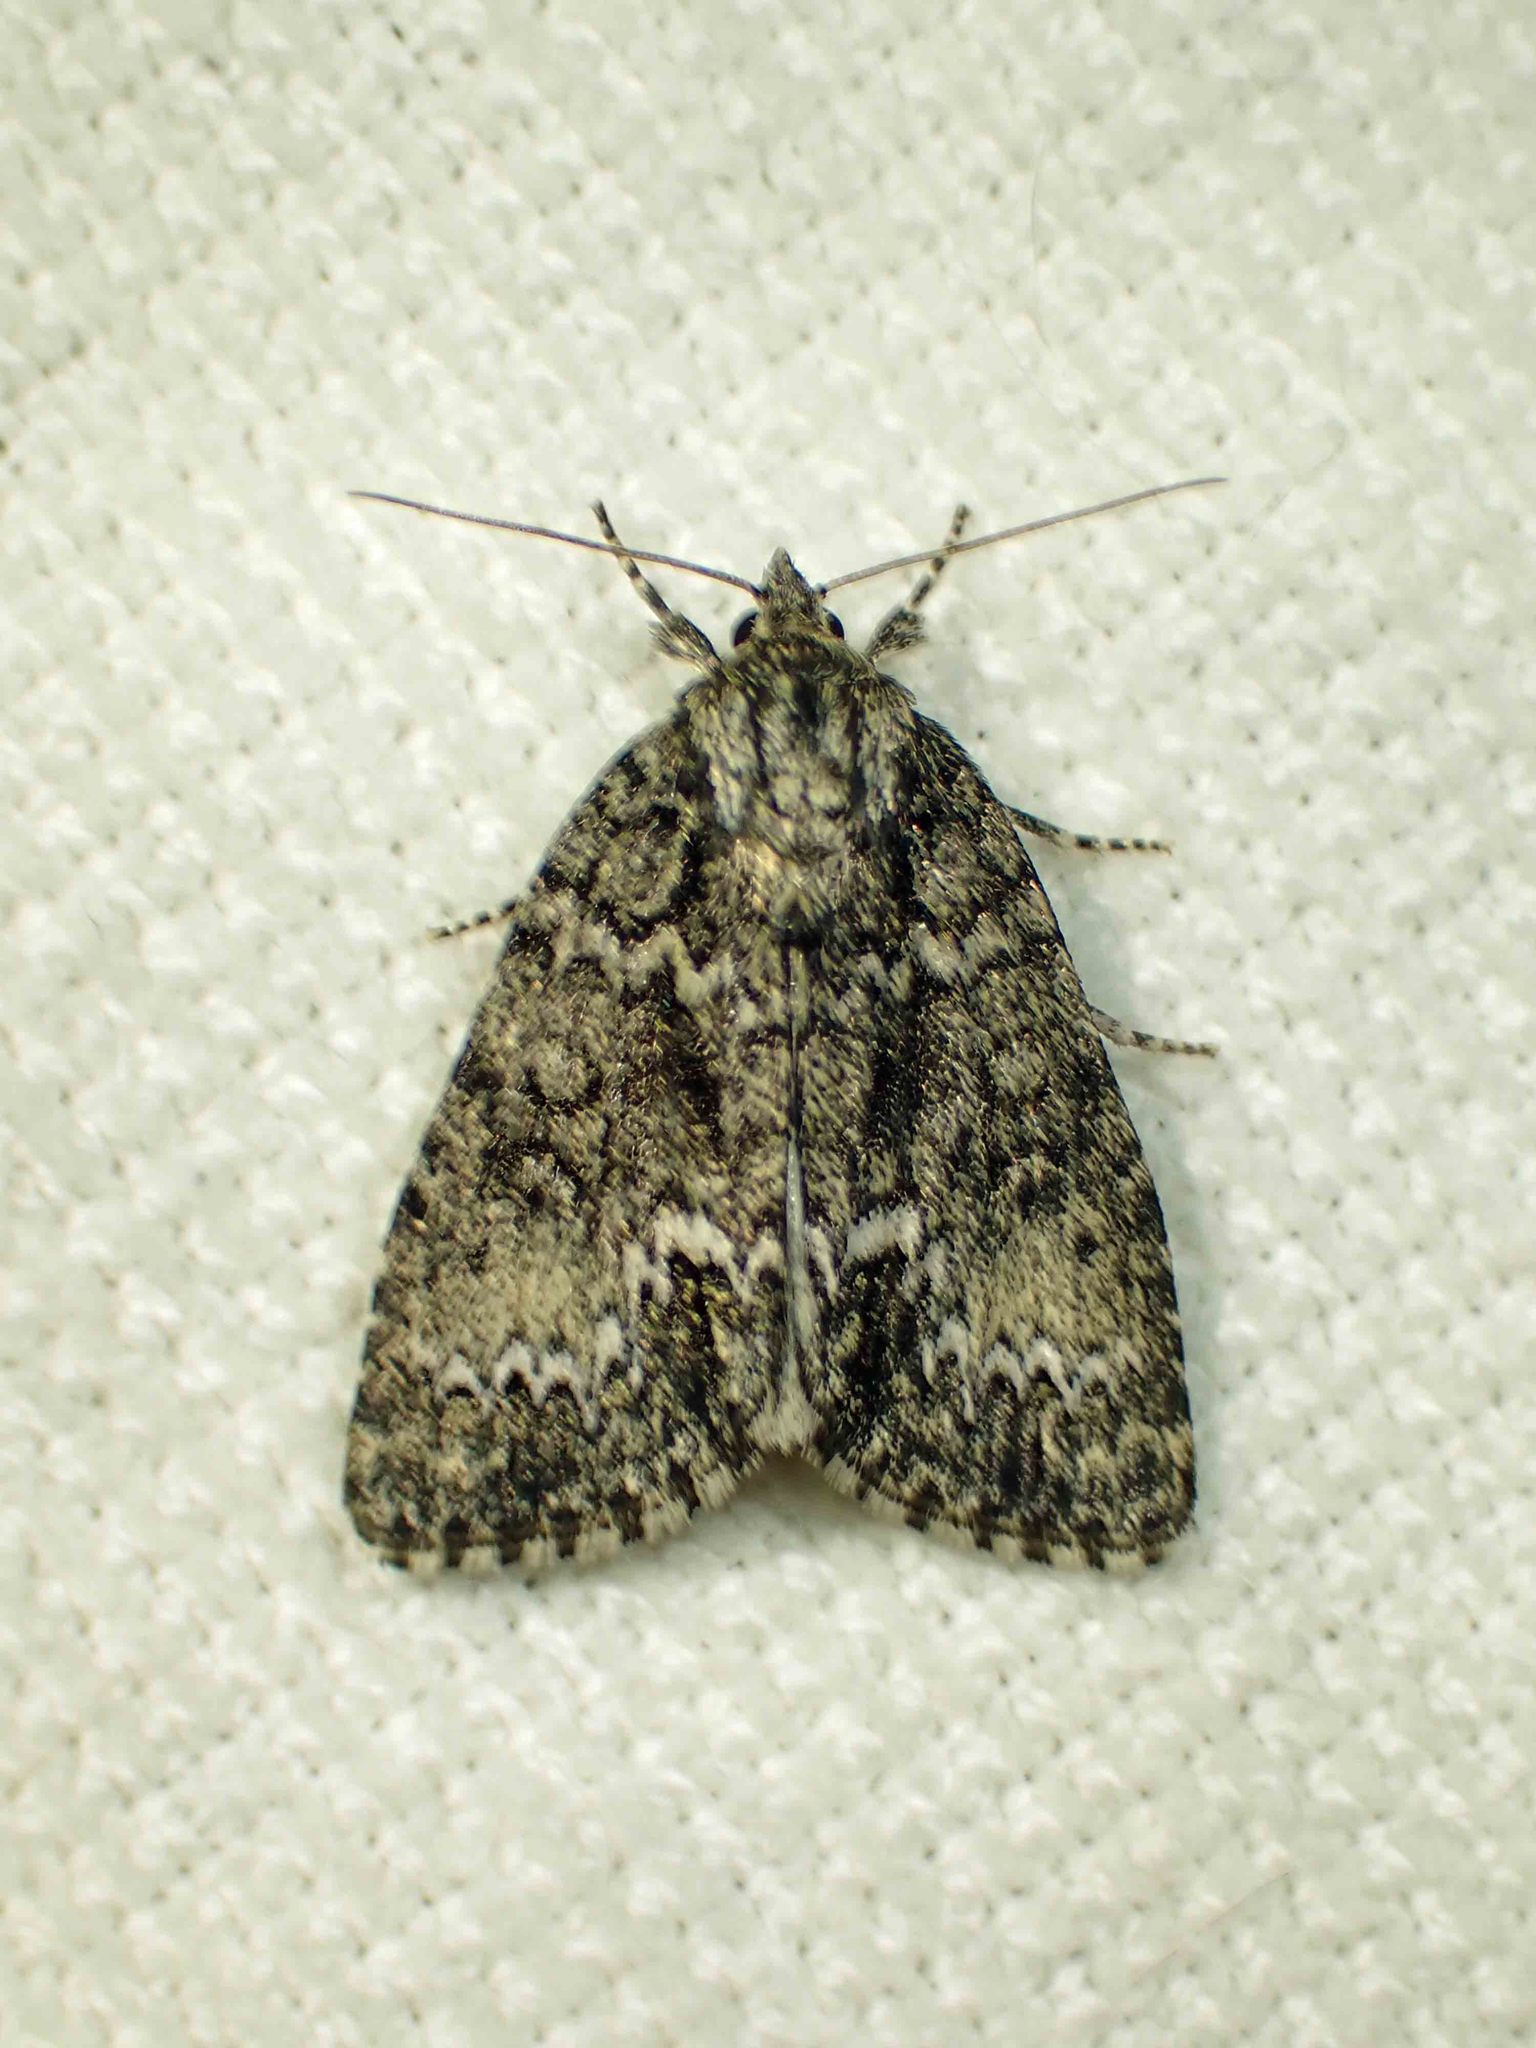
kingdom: Animalia
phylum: Arthropoda
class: Insecta
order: Lepidoptera
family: Noctuidae
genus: Acronicta
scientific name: Acronicta fragilis
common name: Fragile dagger
